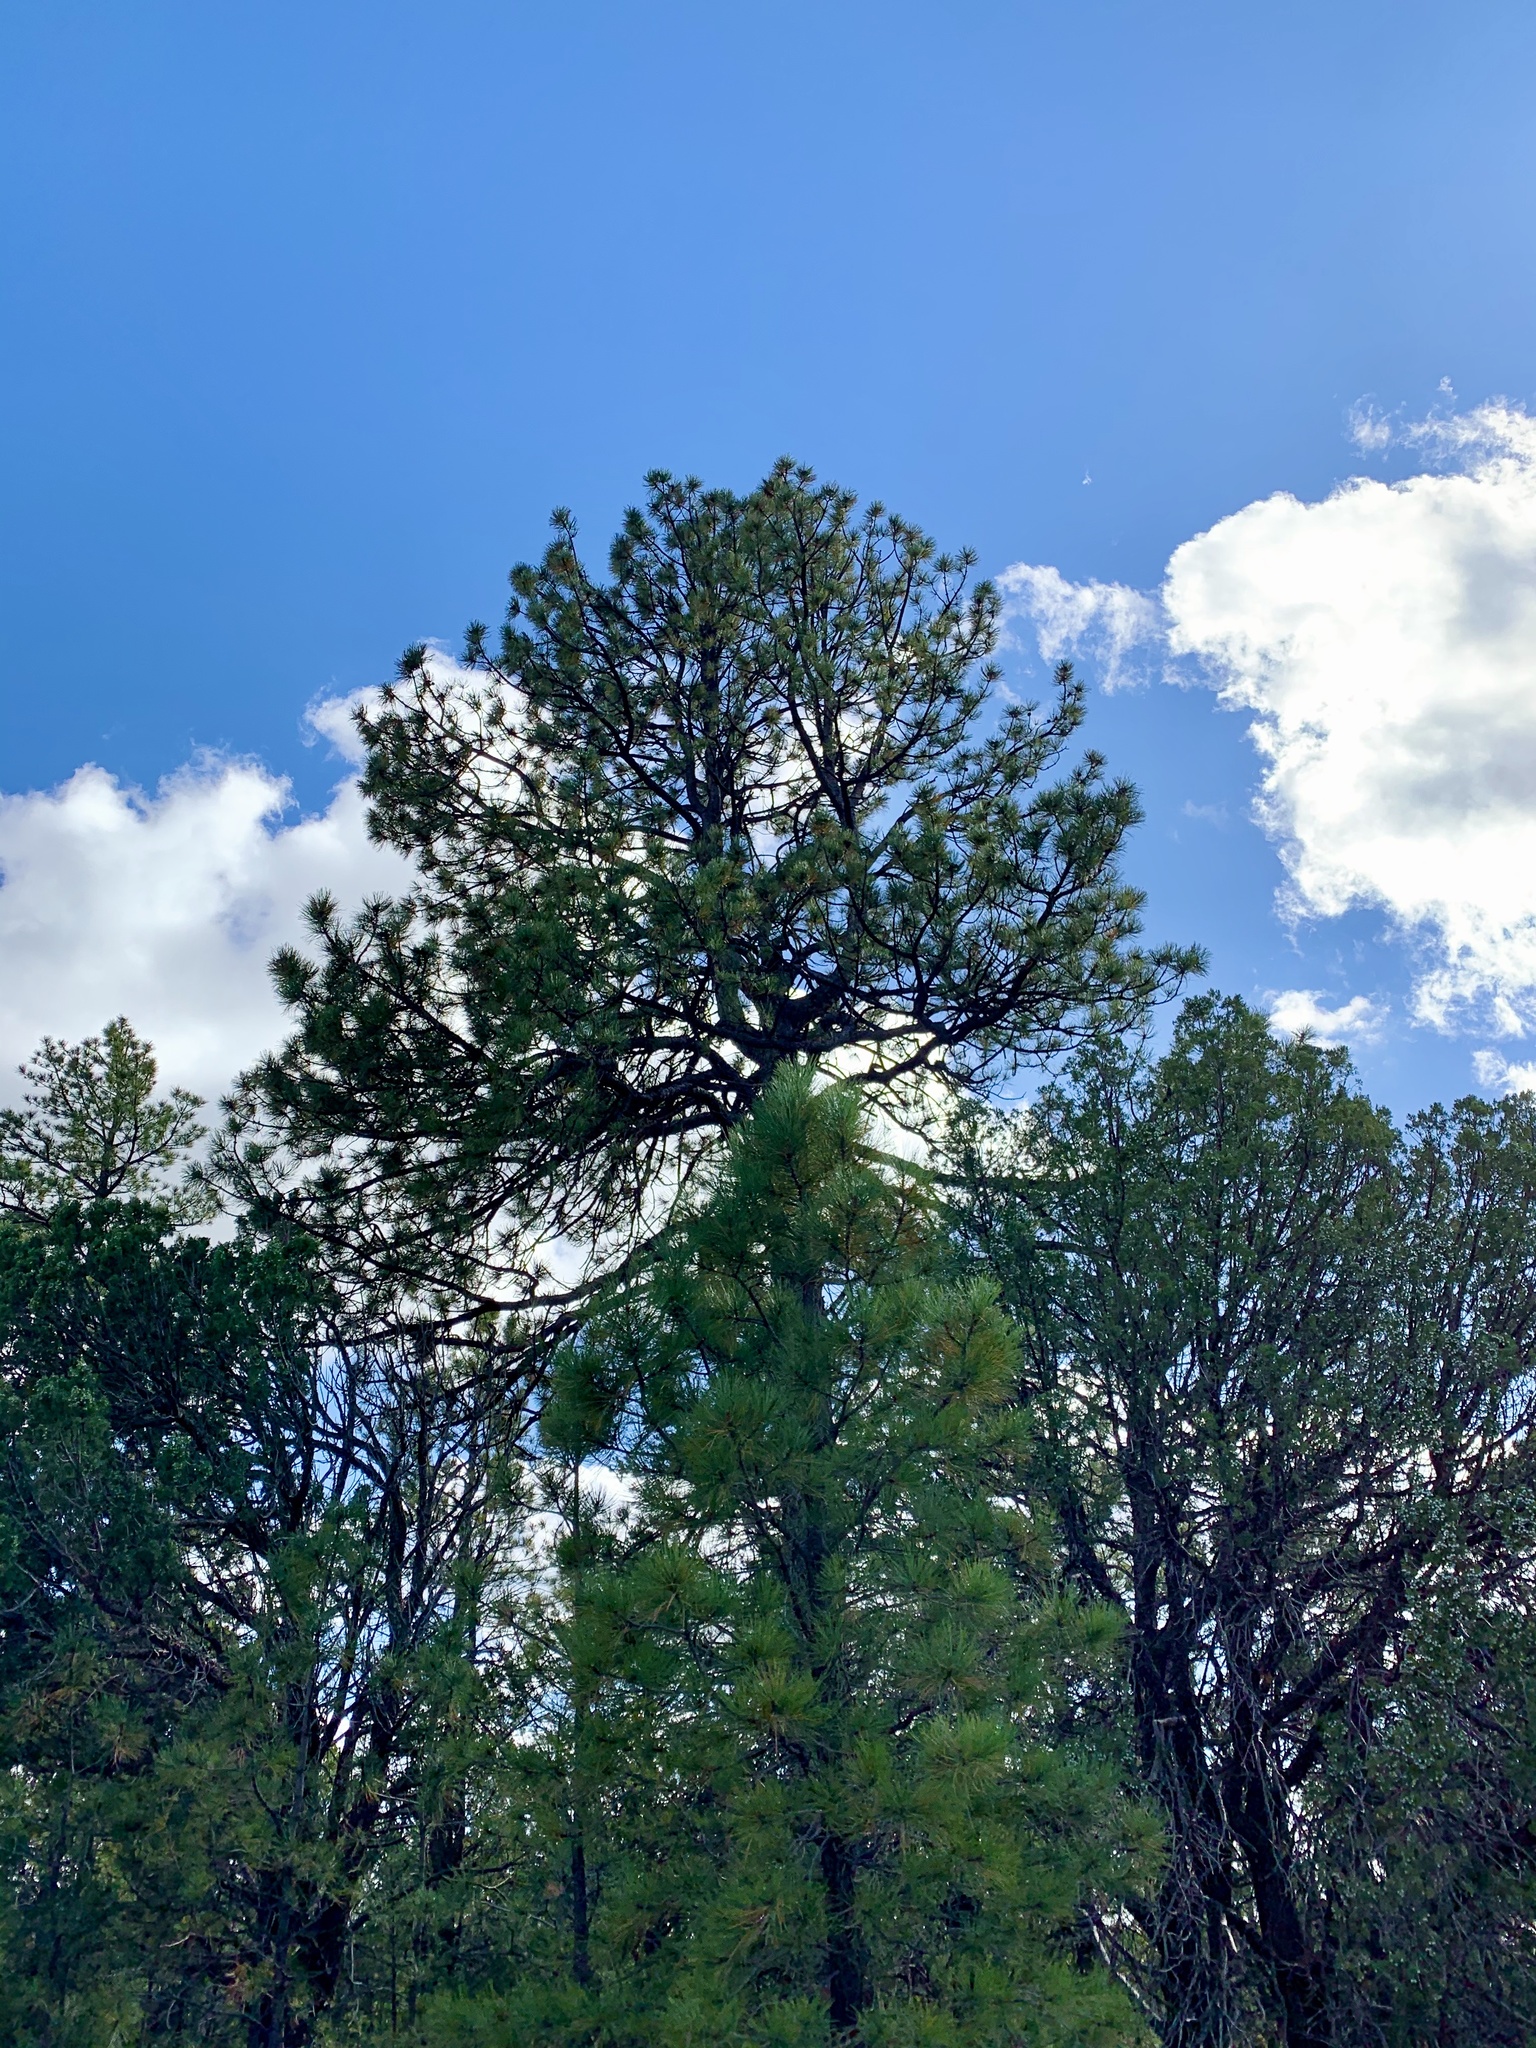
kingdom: Plantae
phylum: Tracheophyta
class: Pinopsida
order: Pinales
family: Pinaceae
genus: Pinus
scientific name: Pinus ponderosa
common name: Western yellow-pine
